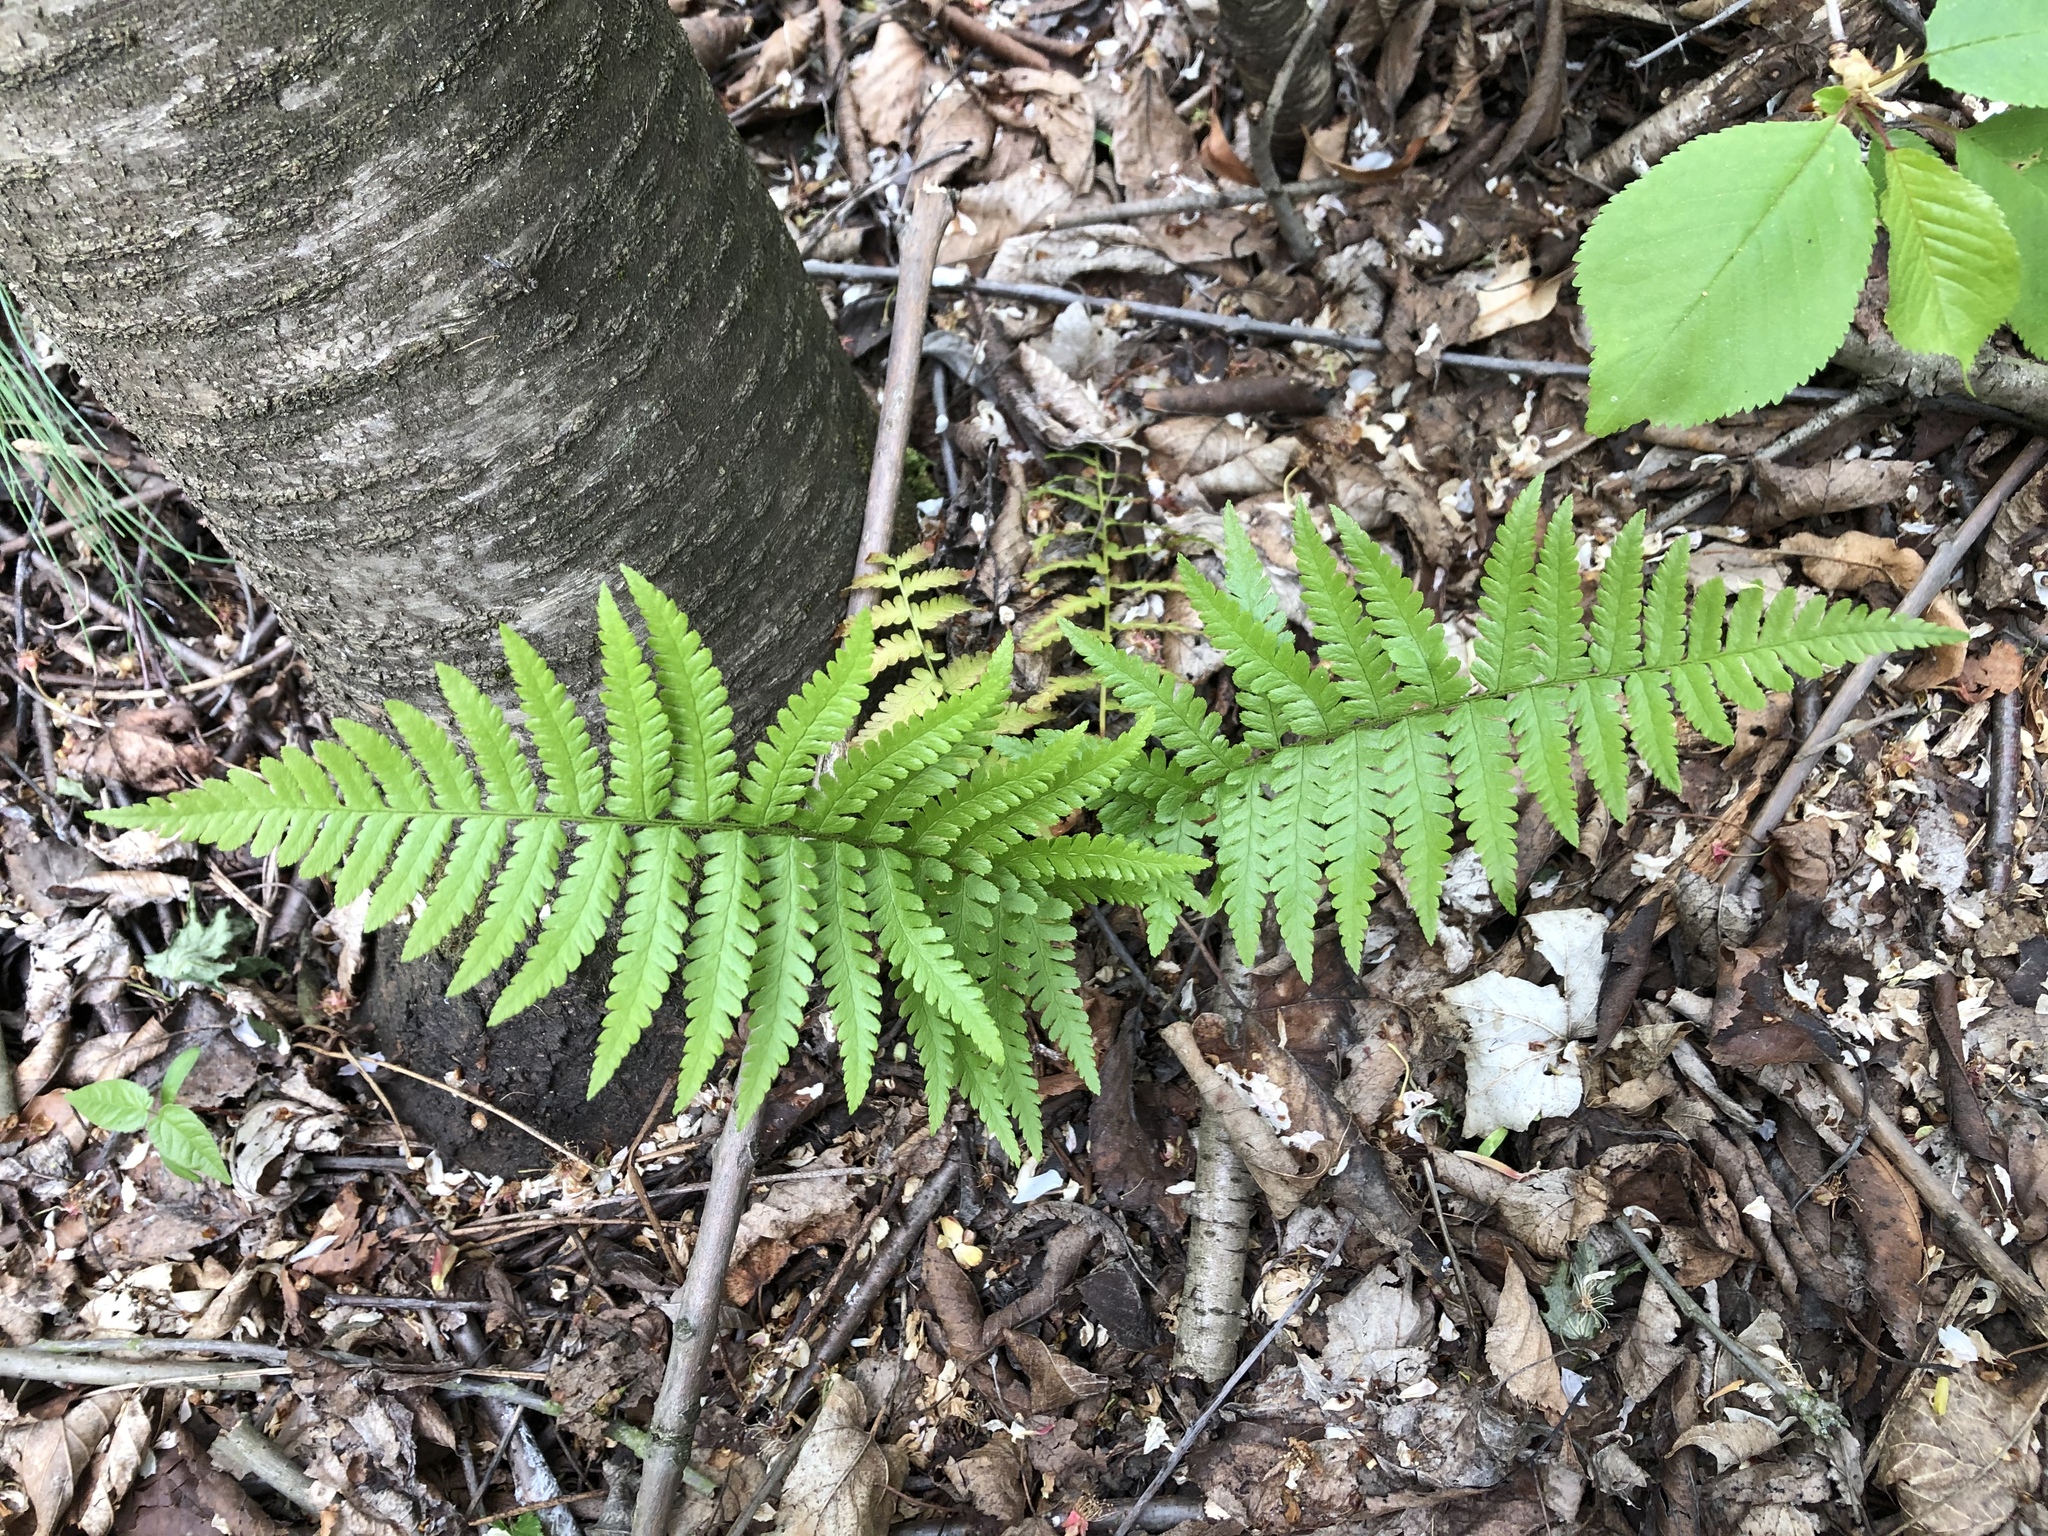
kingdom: Plantae
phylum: Tracheophyta
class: Polypodiopsida
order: Polypodiales
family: Dryopteridaceae
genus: Dryopteris
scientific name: Dryopteris filix-mas
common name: Male fern
